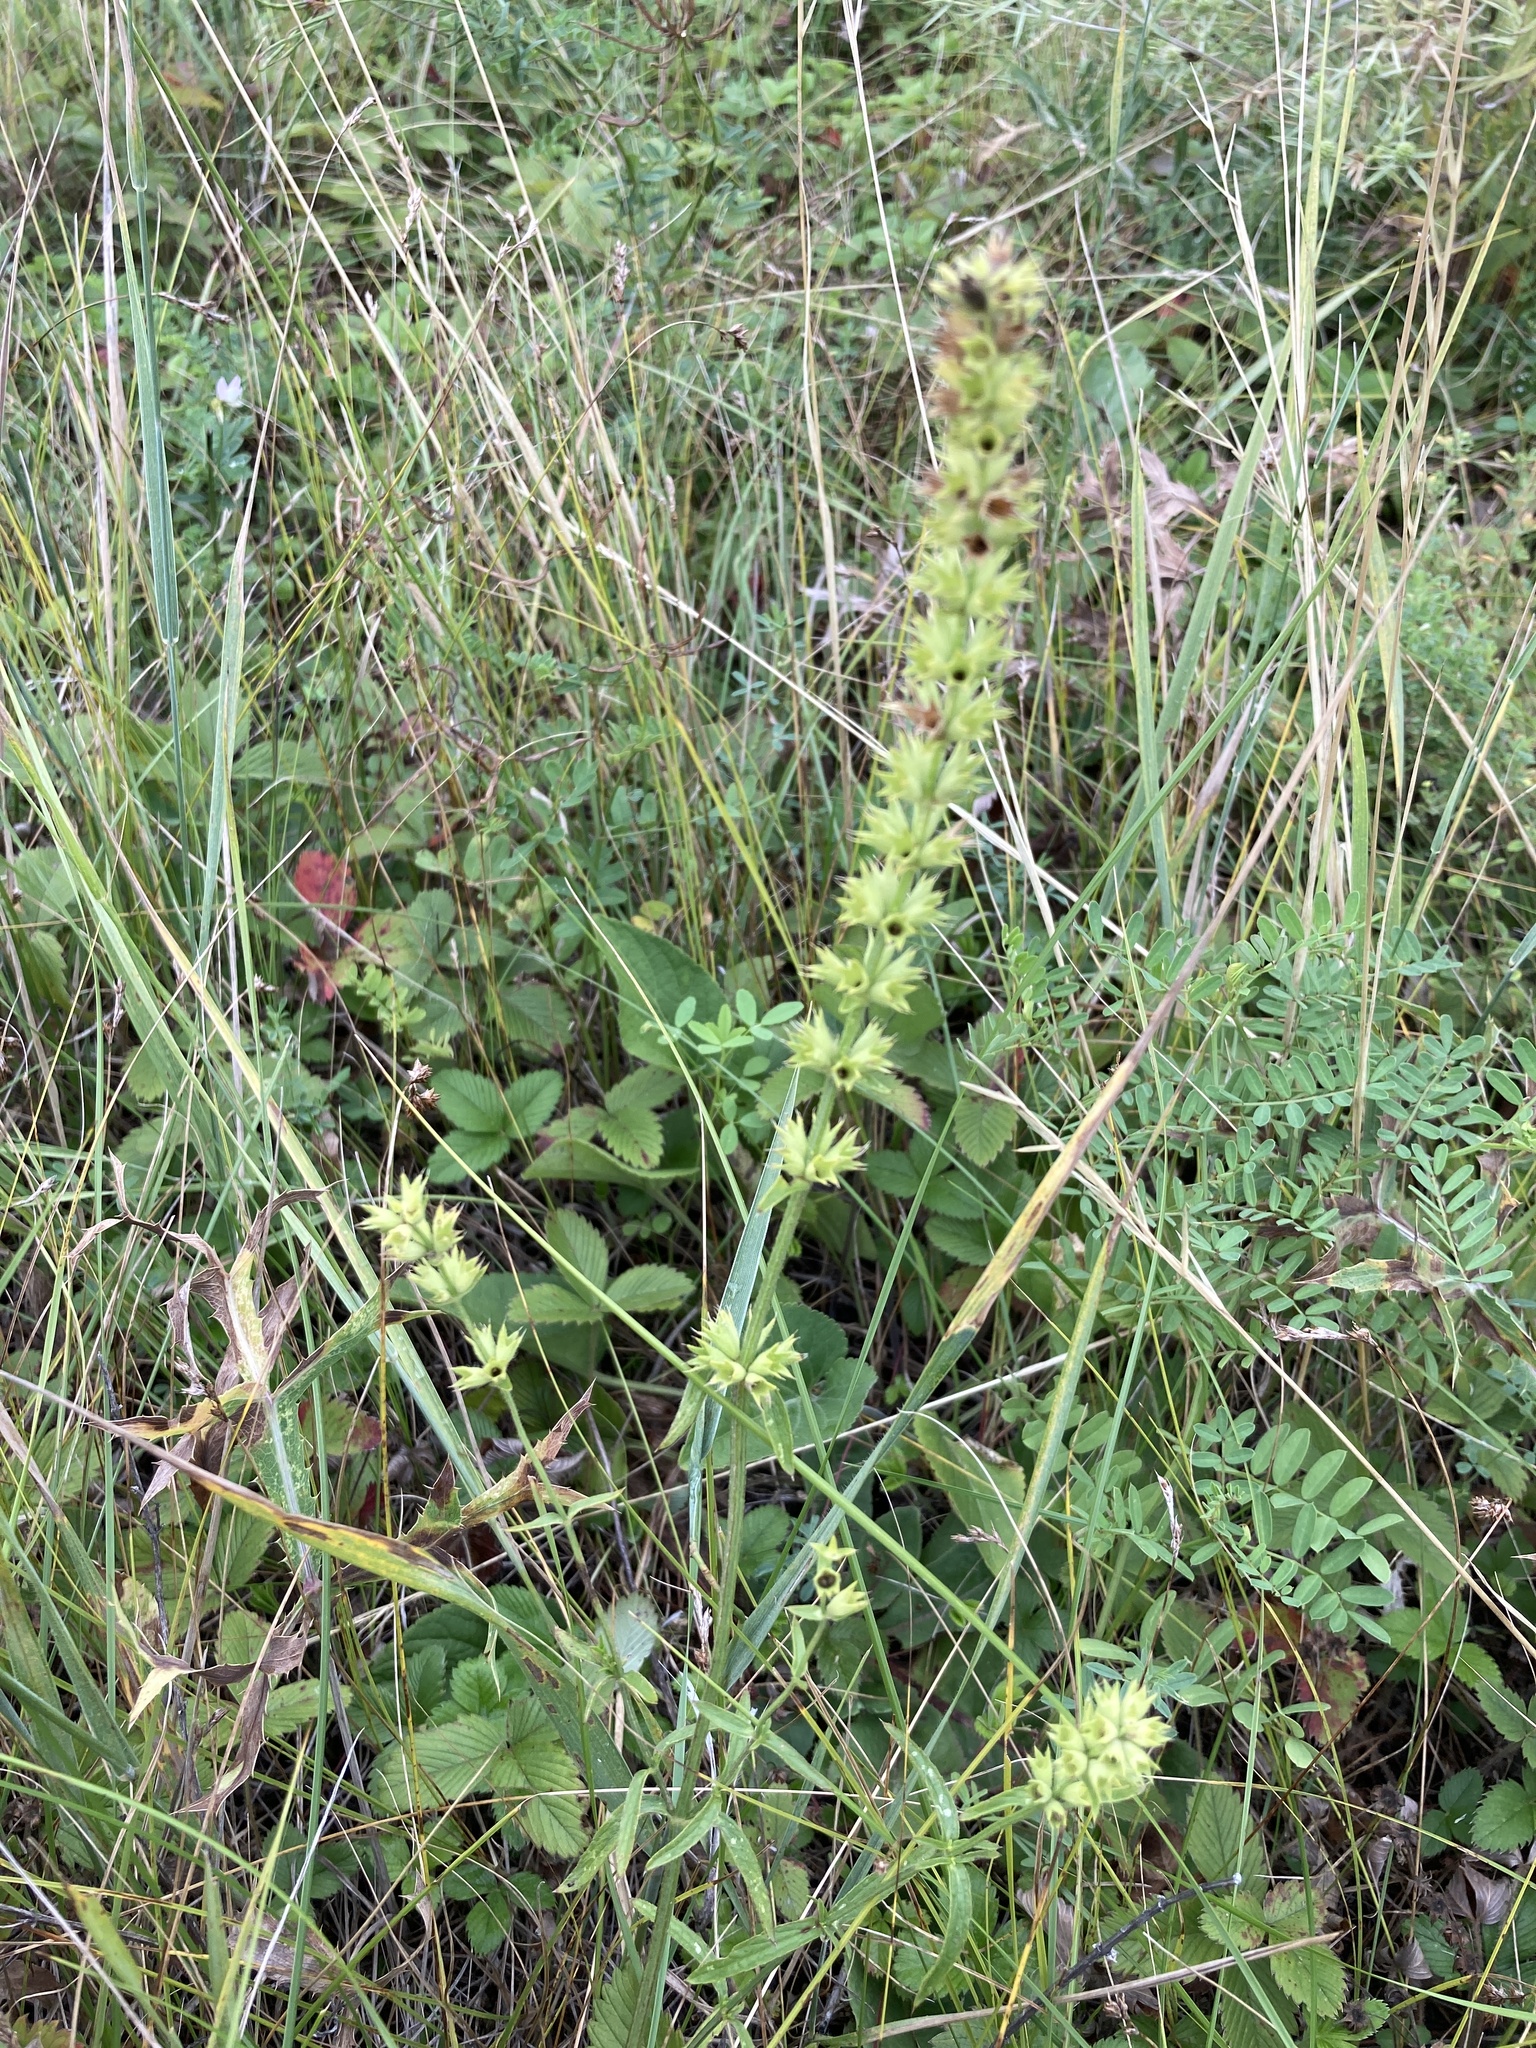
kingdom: Plantae
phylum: Tracheophyta
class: Magnoliopsida
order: Lamiales
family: Lamiaceae
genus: Stachys
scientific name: Stachys recta
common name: Perennial yellow-woundwort
